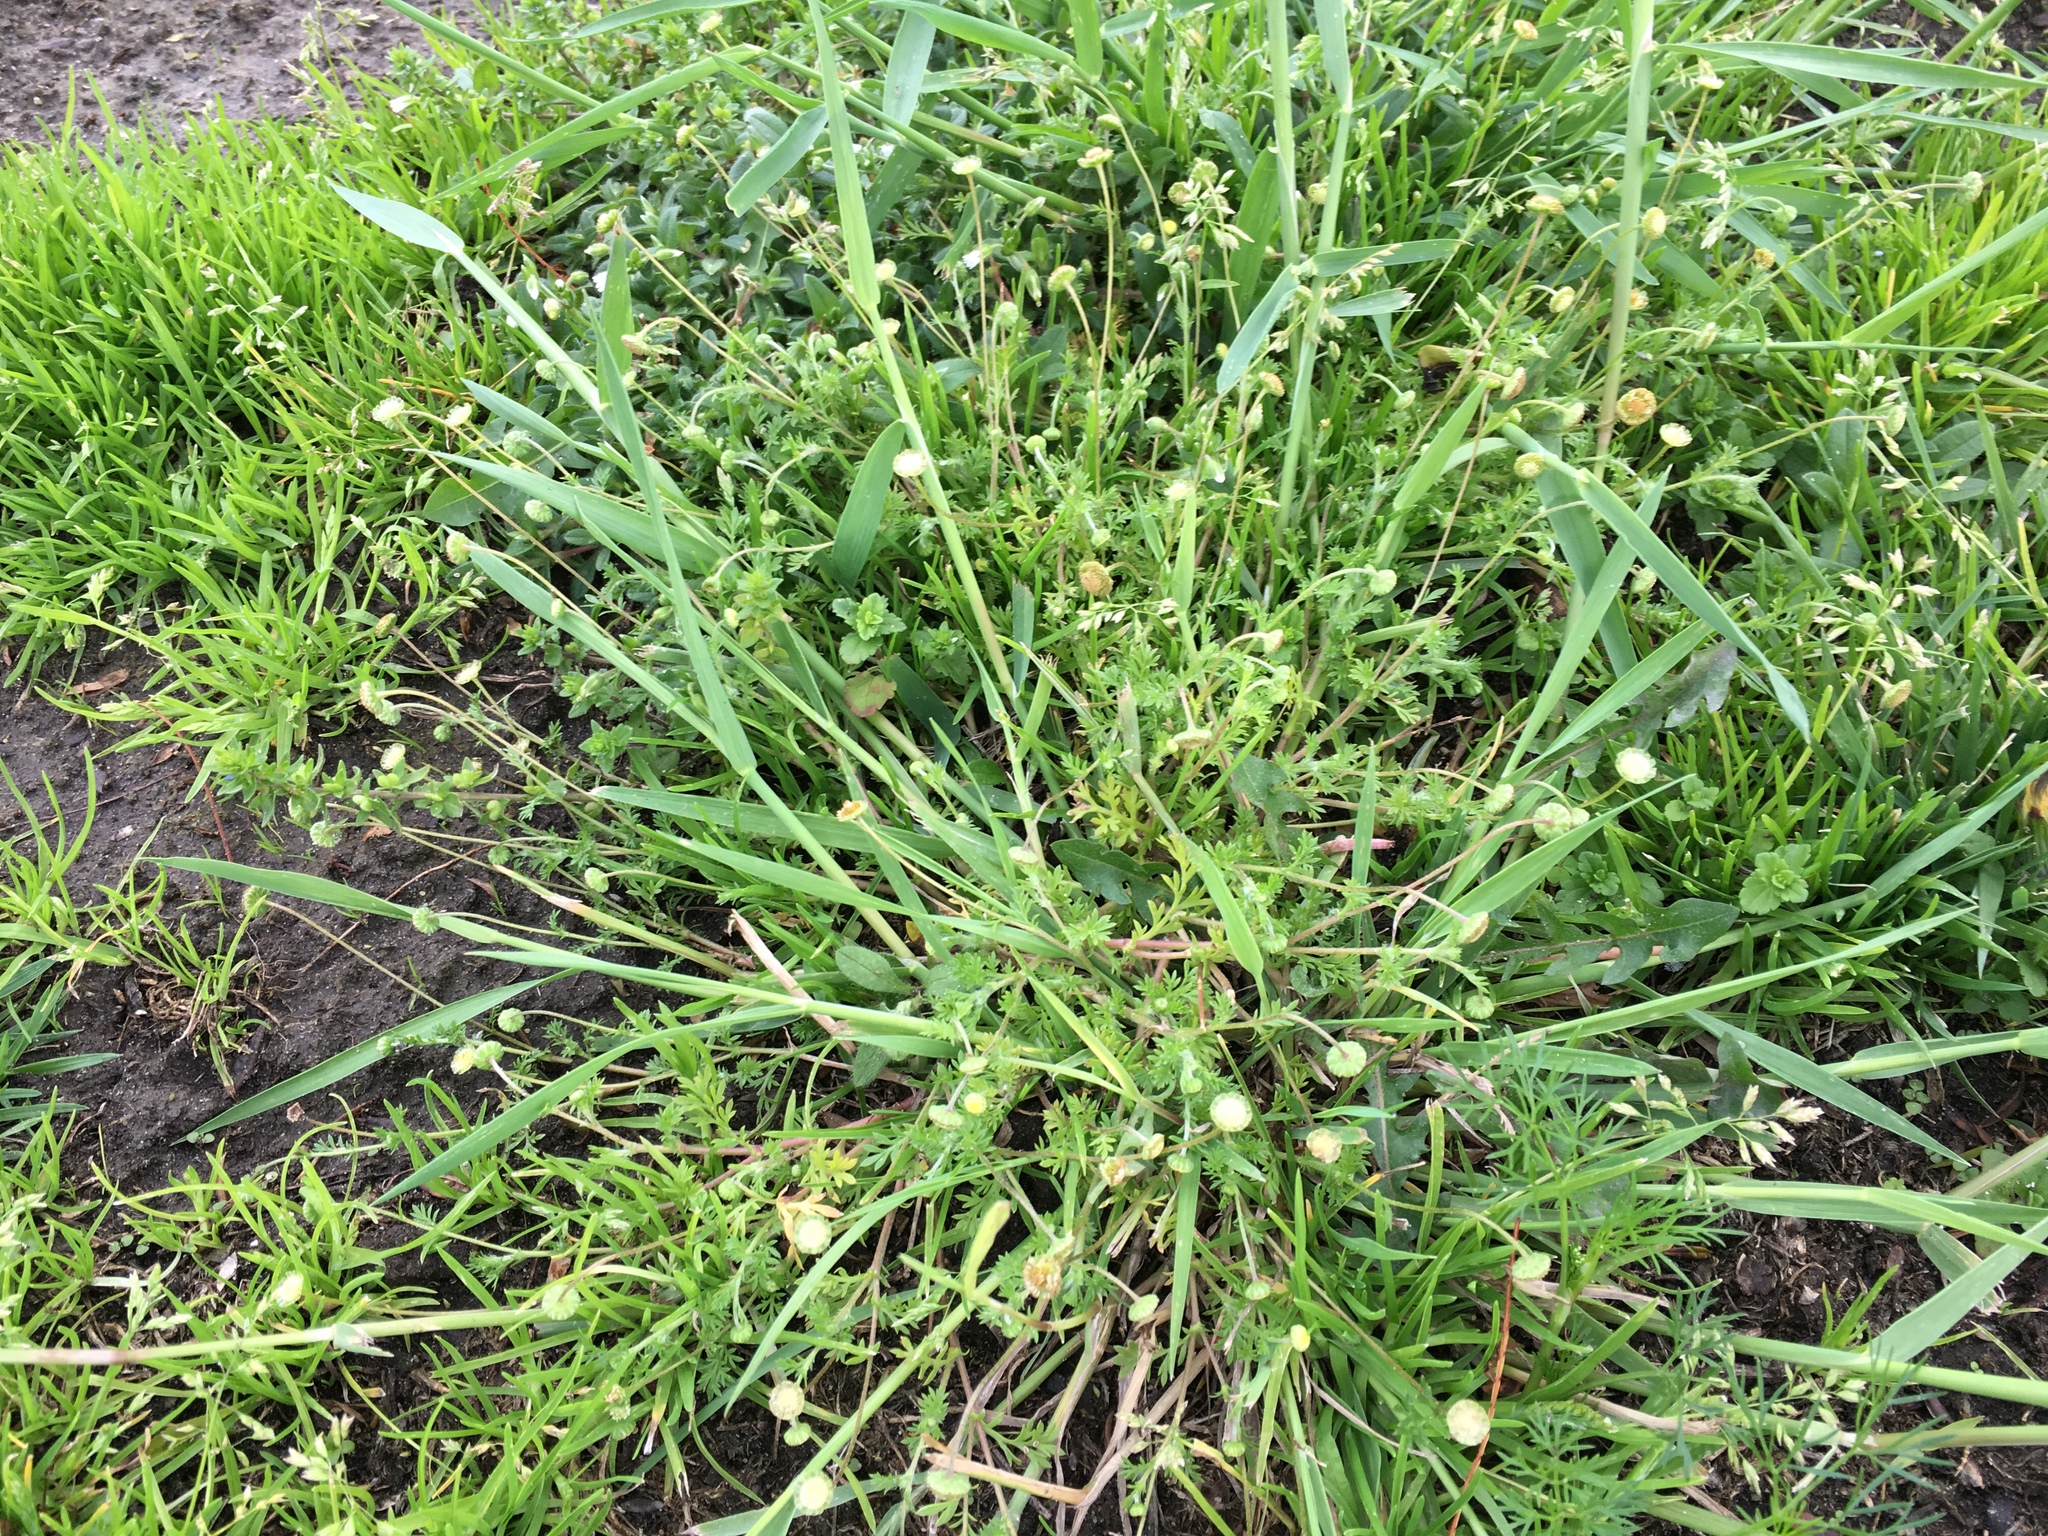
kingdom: Plantae
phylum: Tracheophyta
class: Magnoliopsida
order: Asterales
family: Asteraceae
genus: Cotula
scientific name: Cotula australis
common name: Australian waterbuttons
